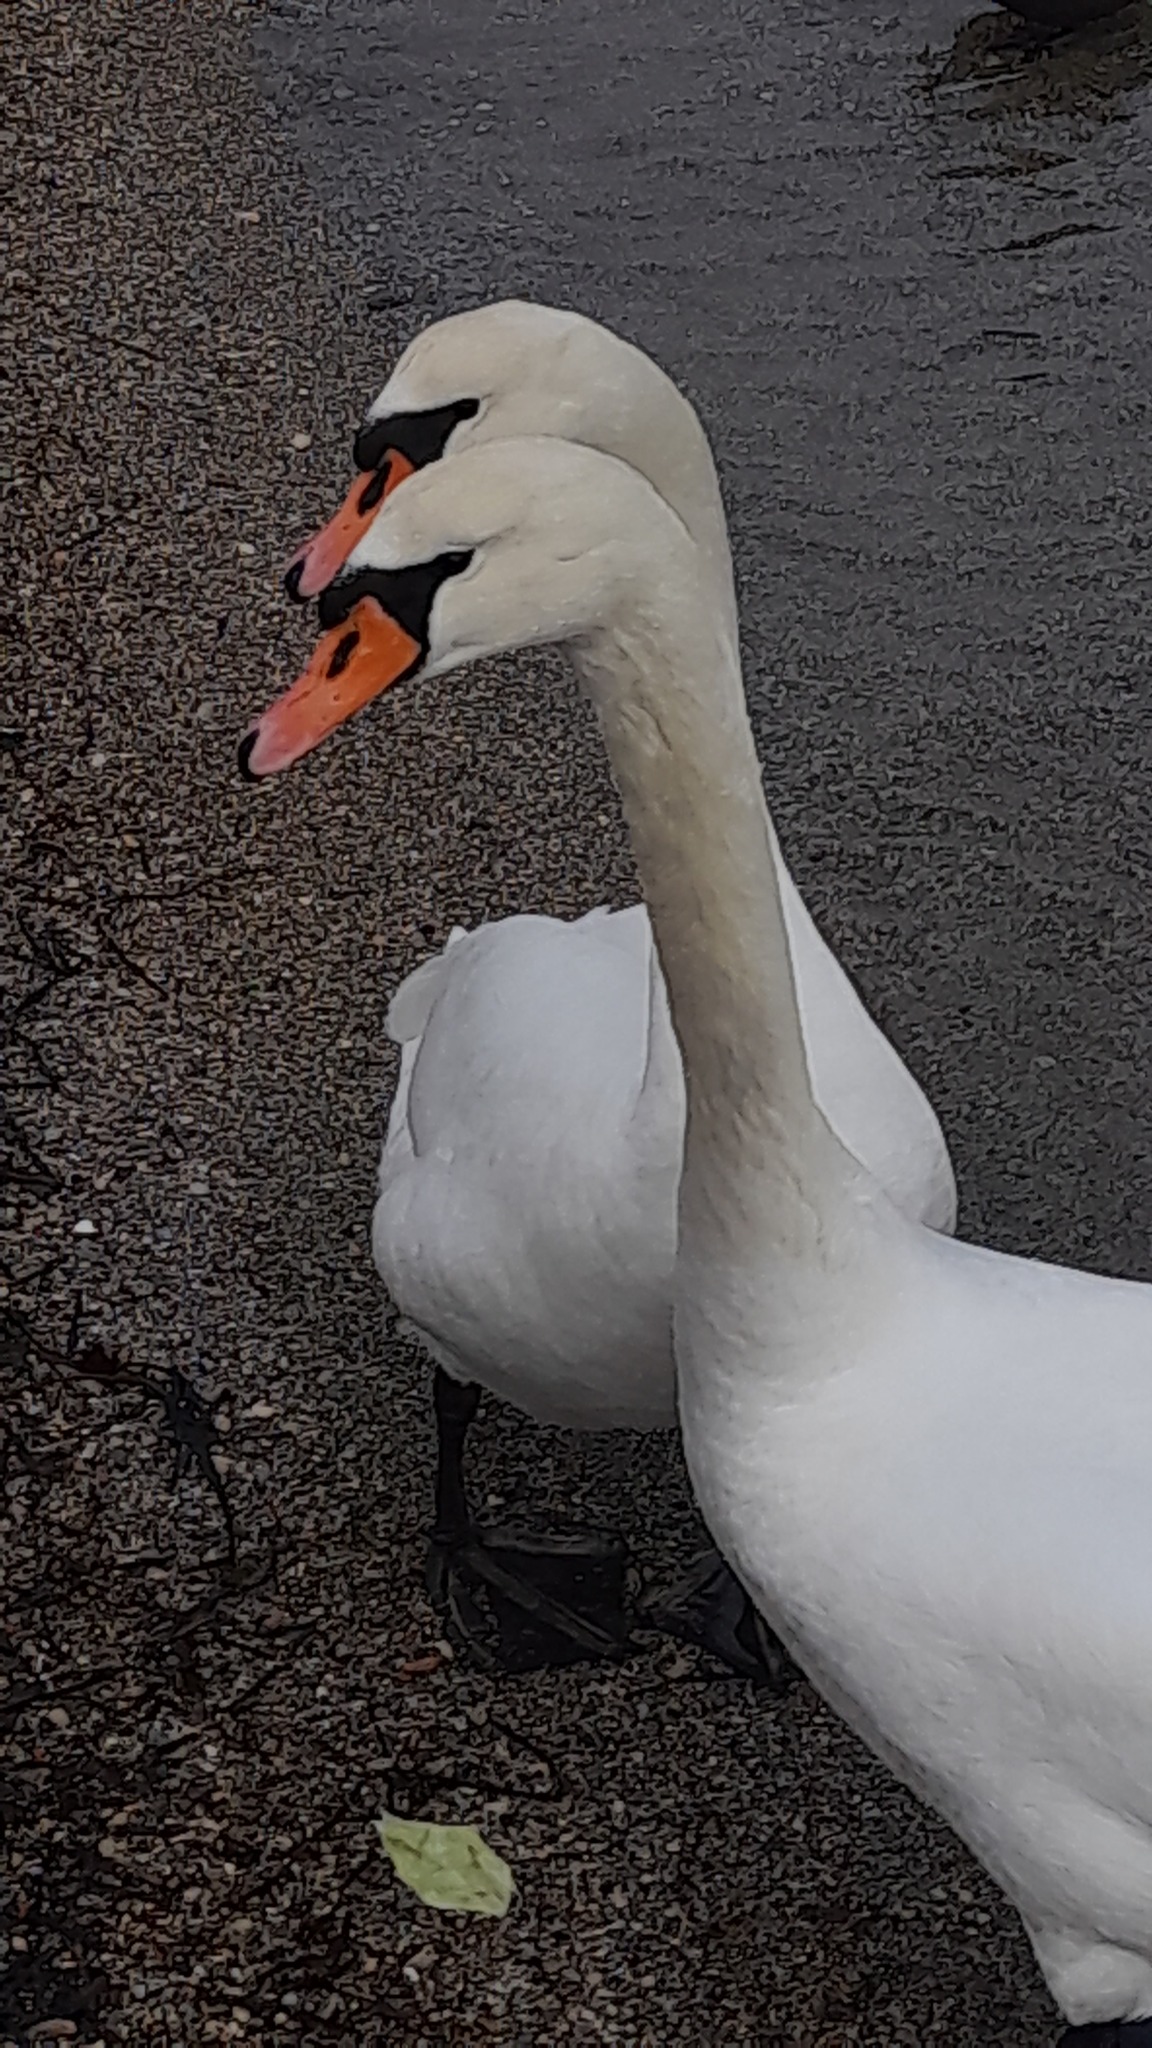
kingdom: Animalia
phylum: Chordata
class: Aves
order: Anseriformes
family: Anatidae
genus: Cygnus
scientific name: Cygnus olor
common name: Mute swan
